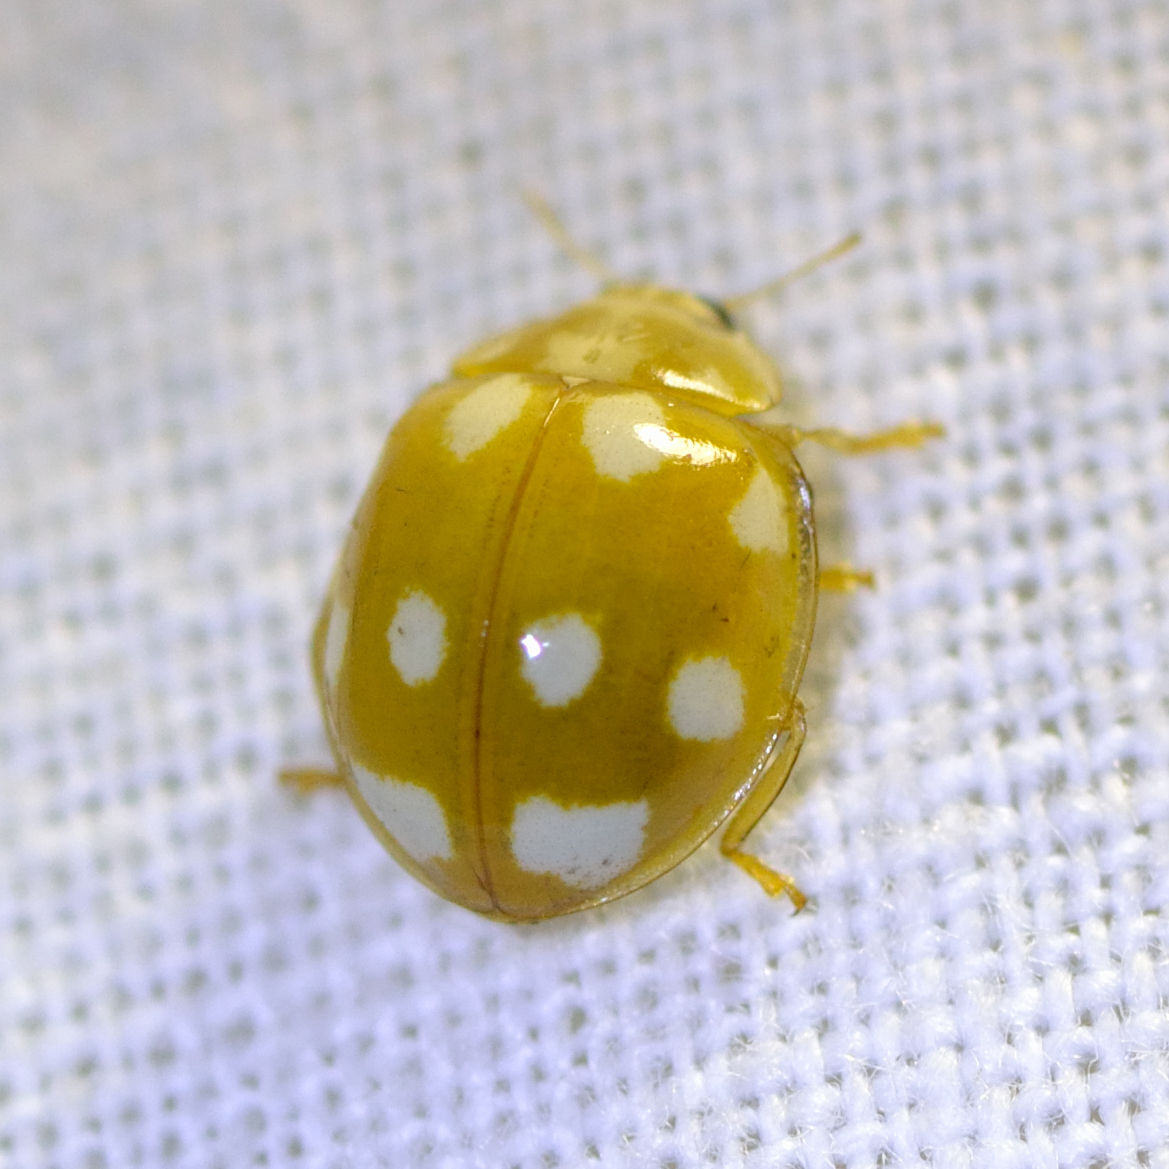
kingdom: Animalia
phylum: Arthropoda
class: Insecta
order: Coleoptera
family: Coccinellidae
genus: Calvia
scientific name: Calvia decemguttata
